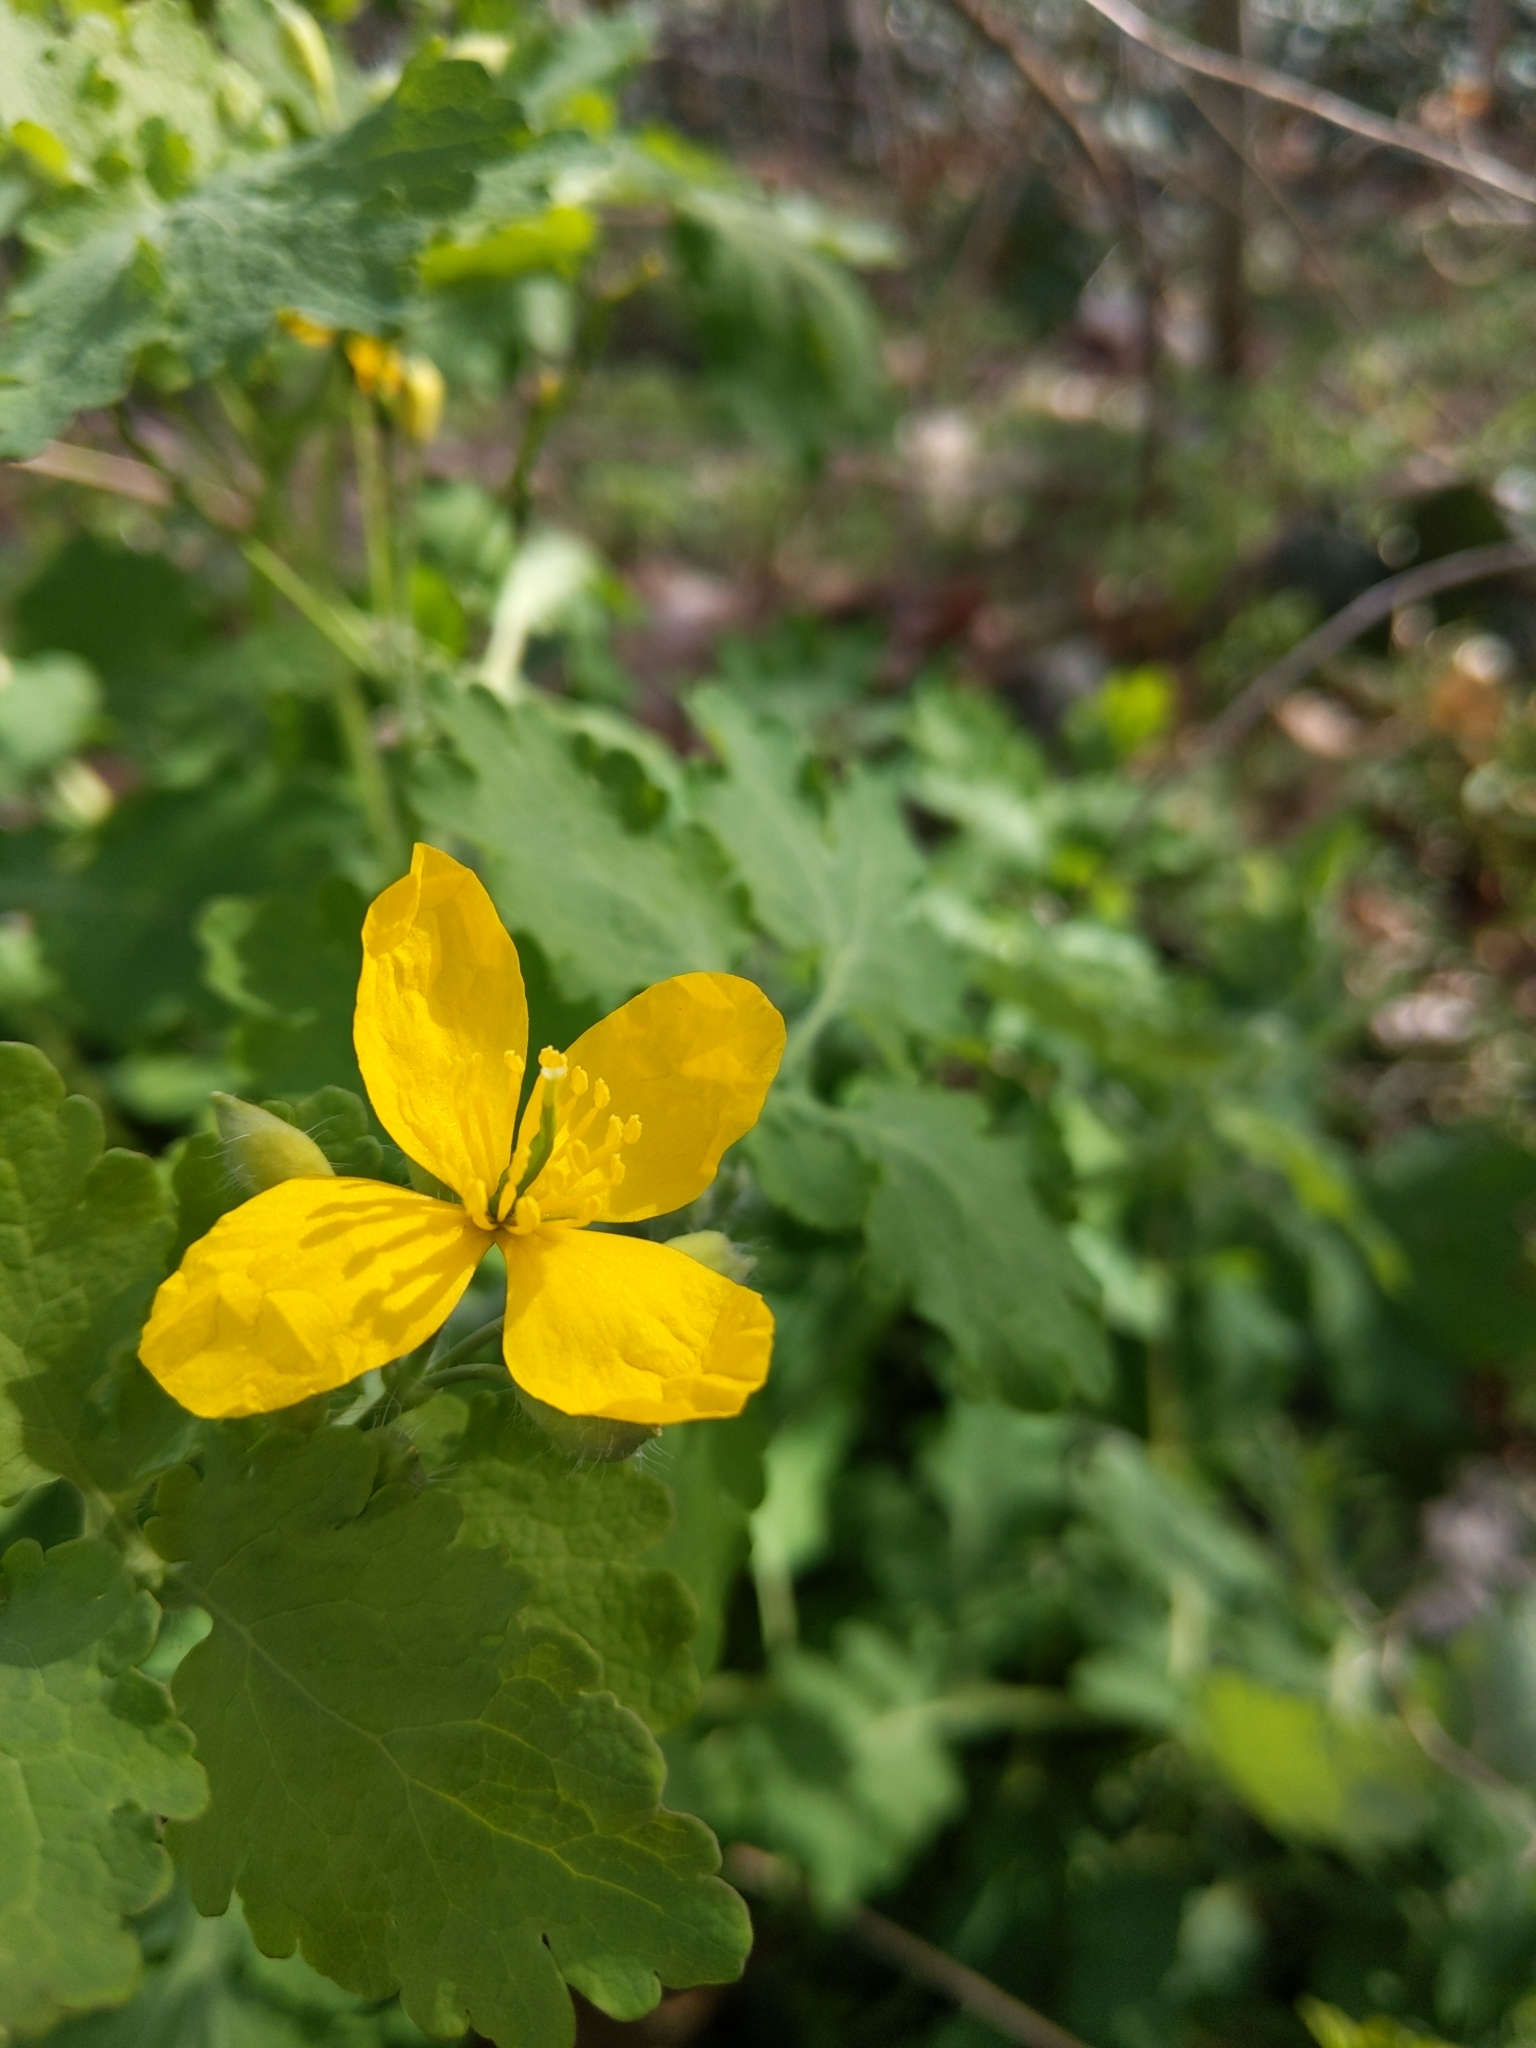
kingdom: Plantae
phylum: Tracheophyta
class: Magnoliopsida
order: Ranunculales
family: Papaveraceae
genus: Chelidonium
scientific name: Chelidonium majus
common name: Greater celandine
